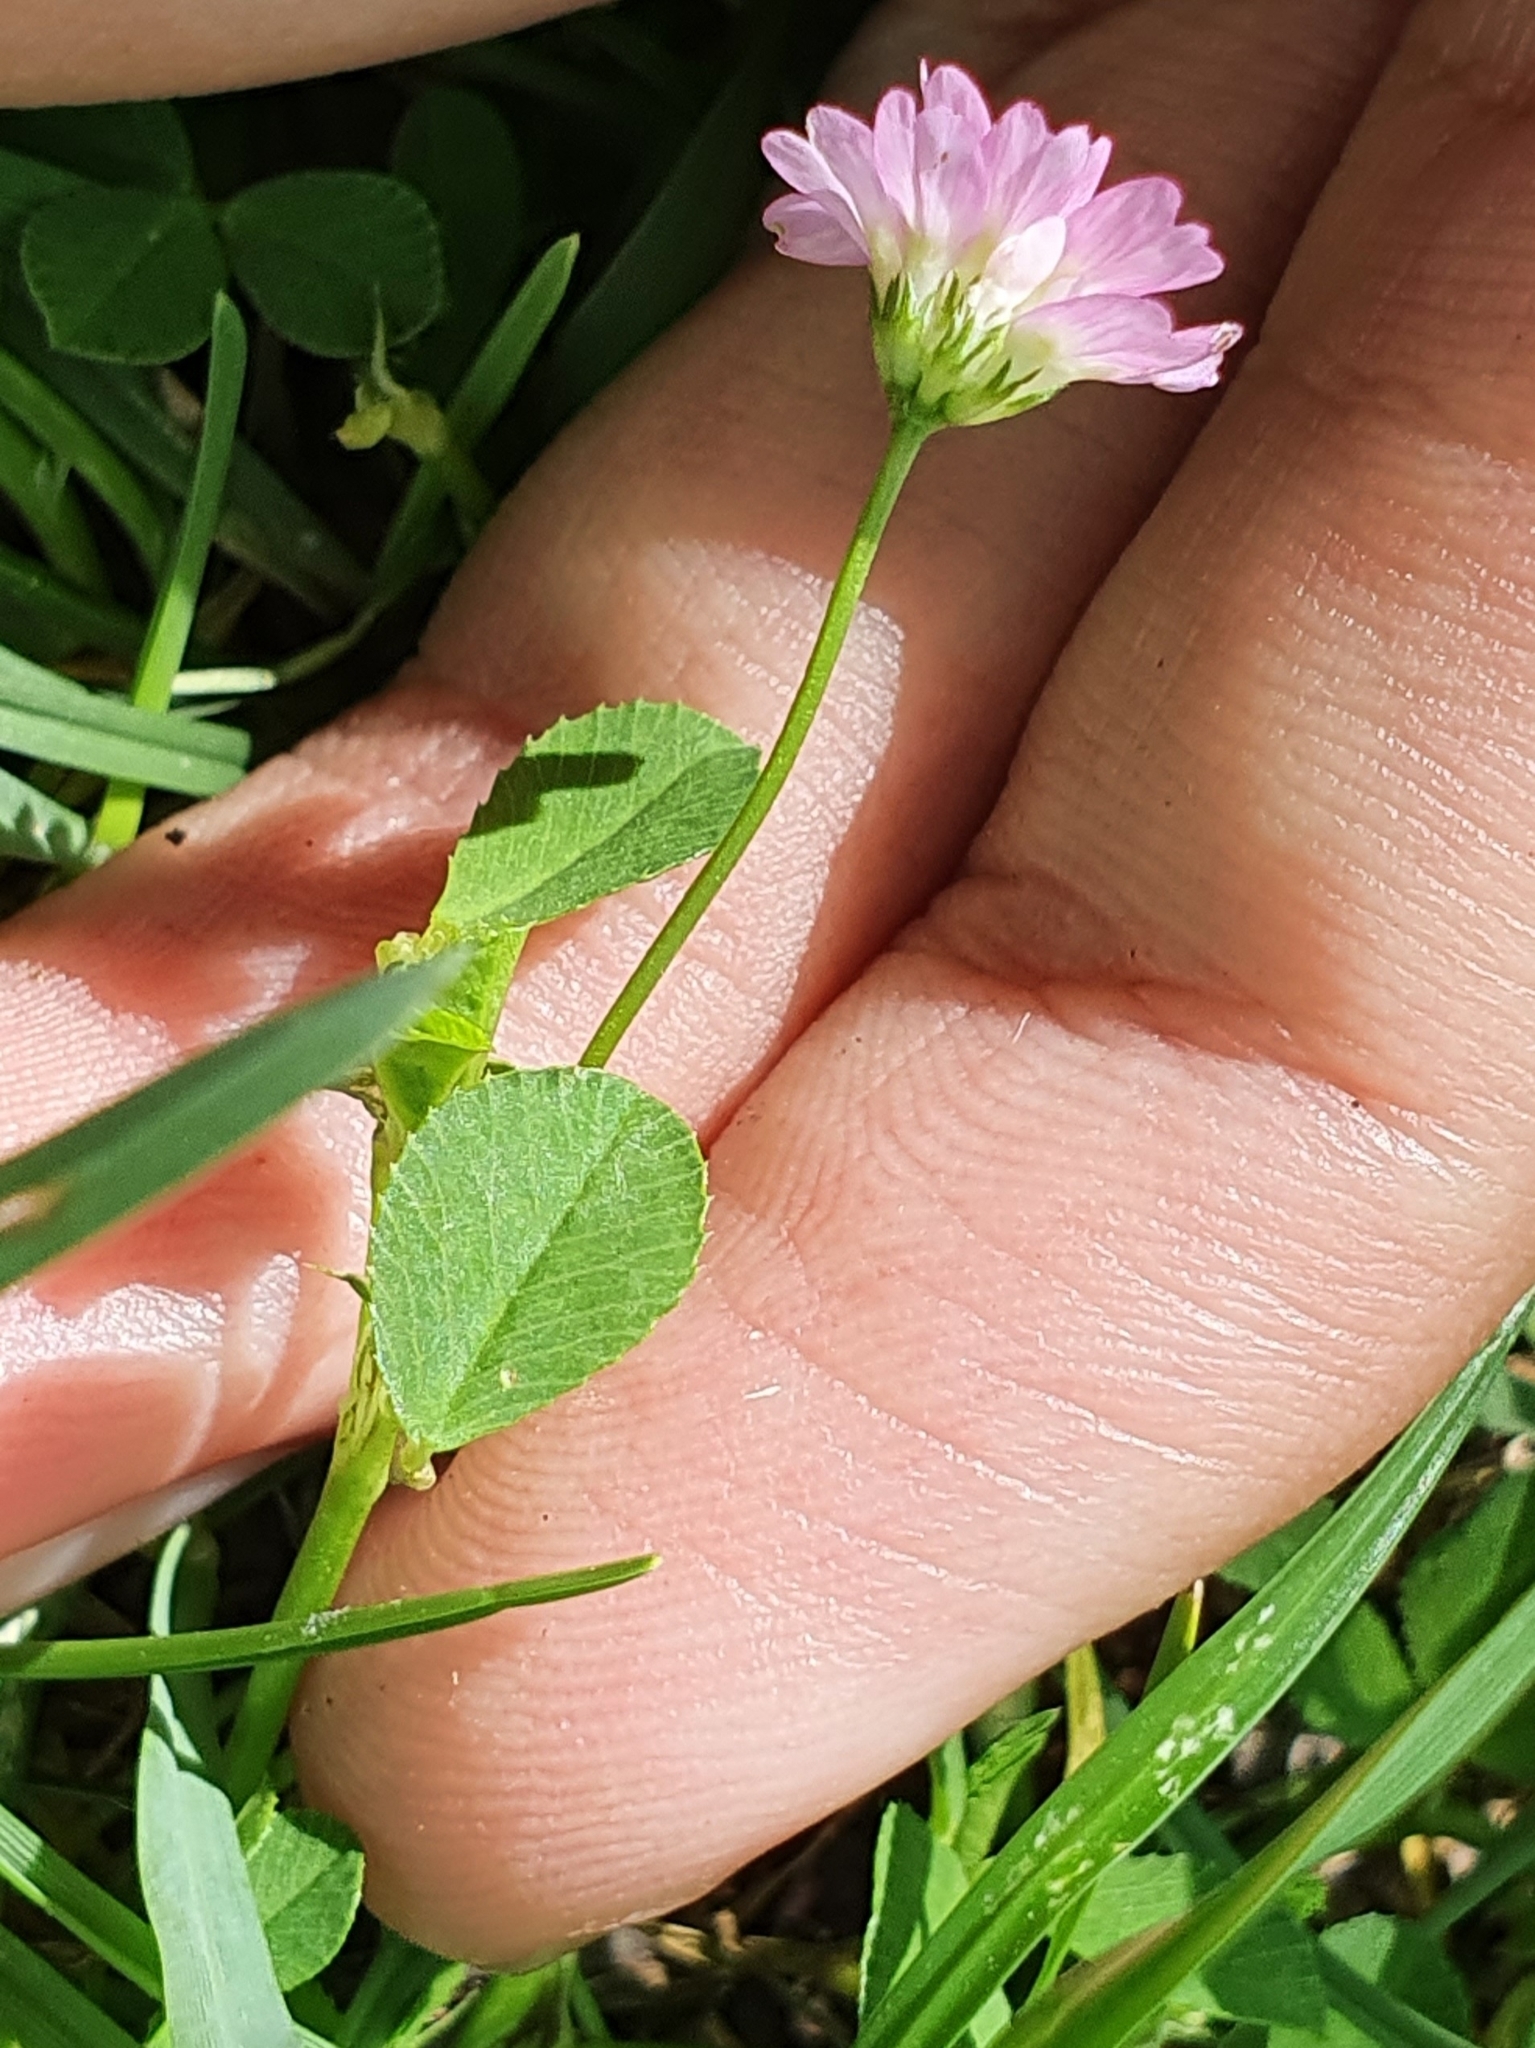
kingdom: Plantae
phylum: Tracheophyta
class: Magnoliopsida
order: Fabales
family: Fabaceae
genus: Trifolium
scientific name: Trifolium resupinatum
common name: Reversed clover
